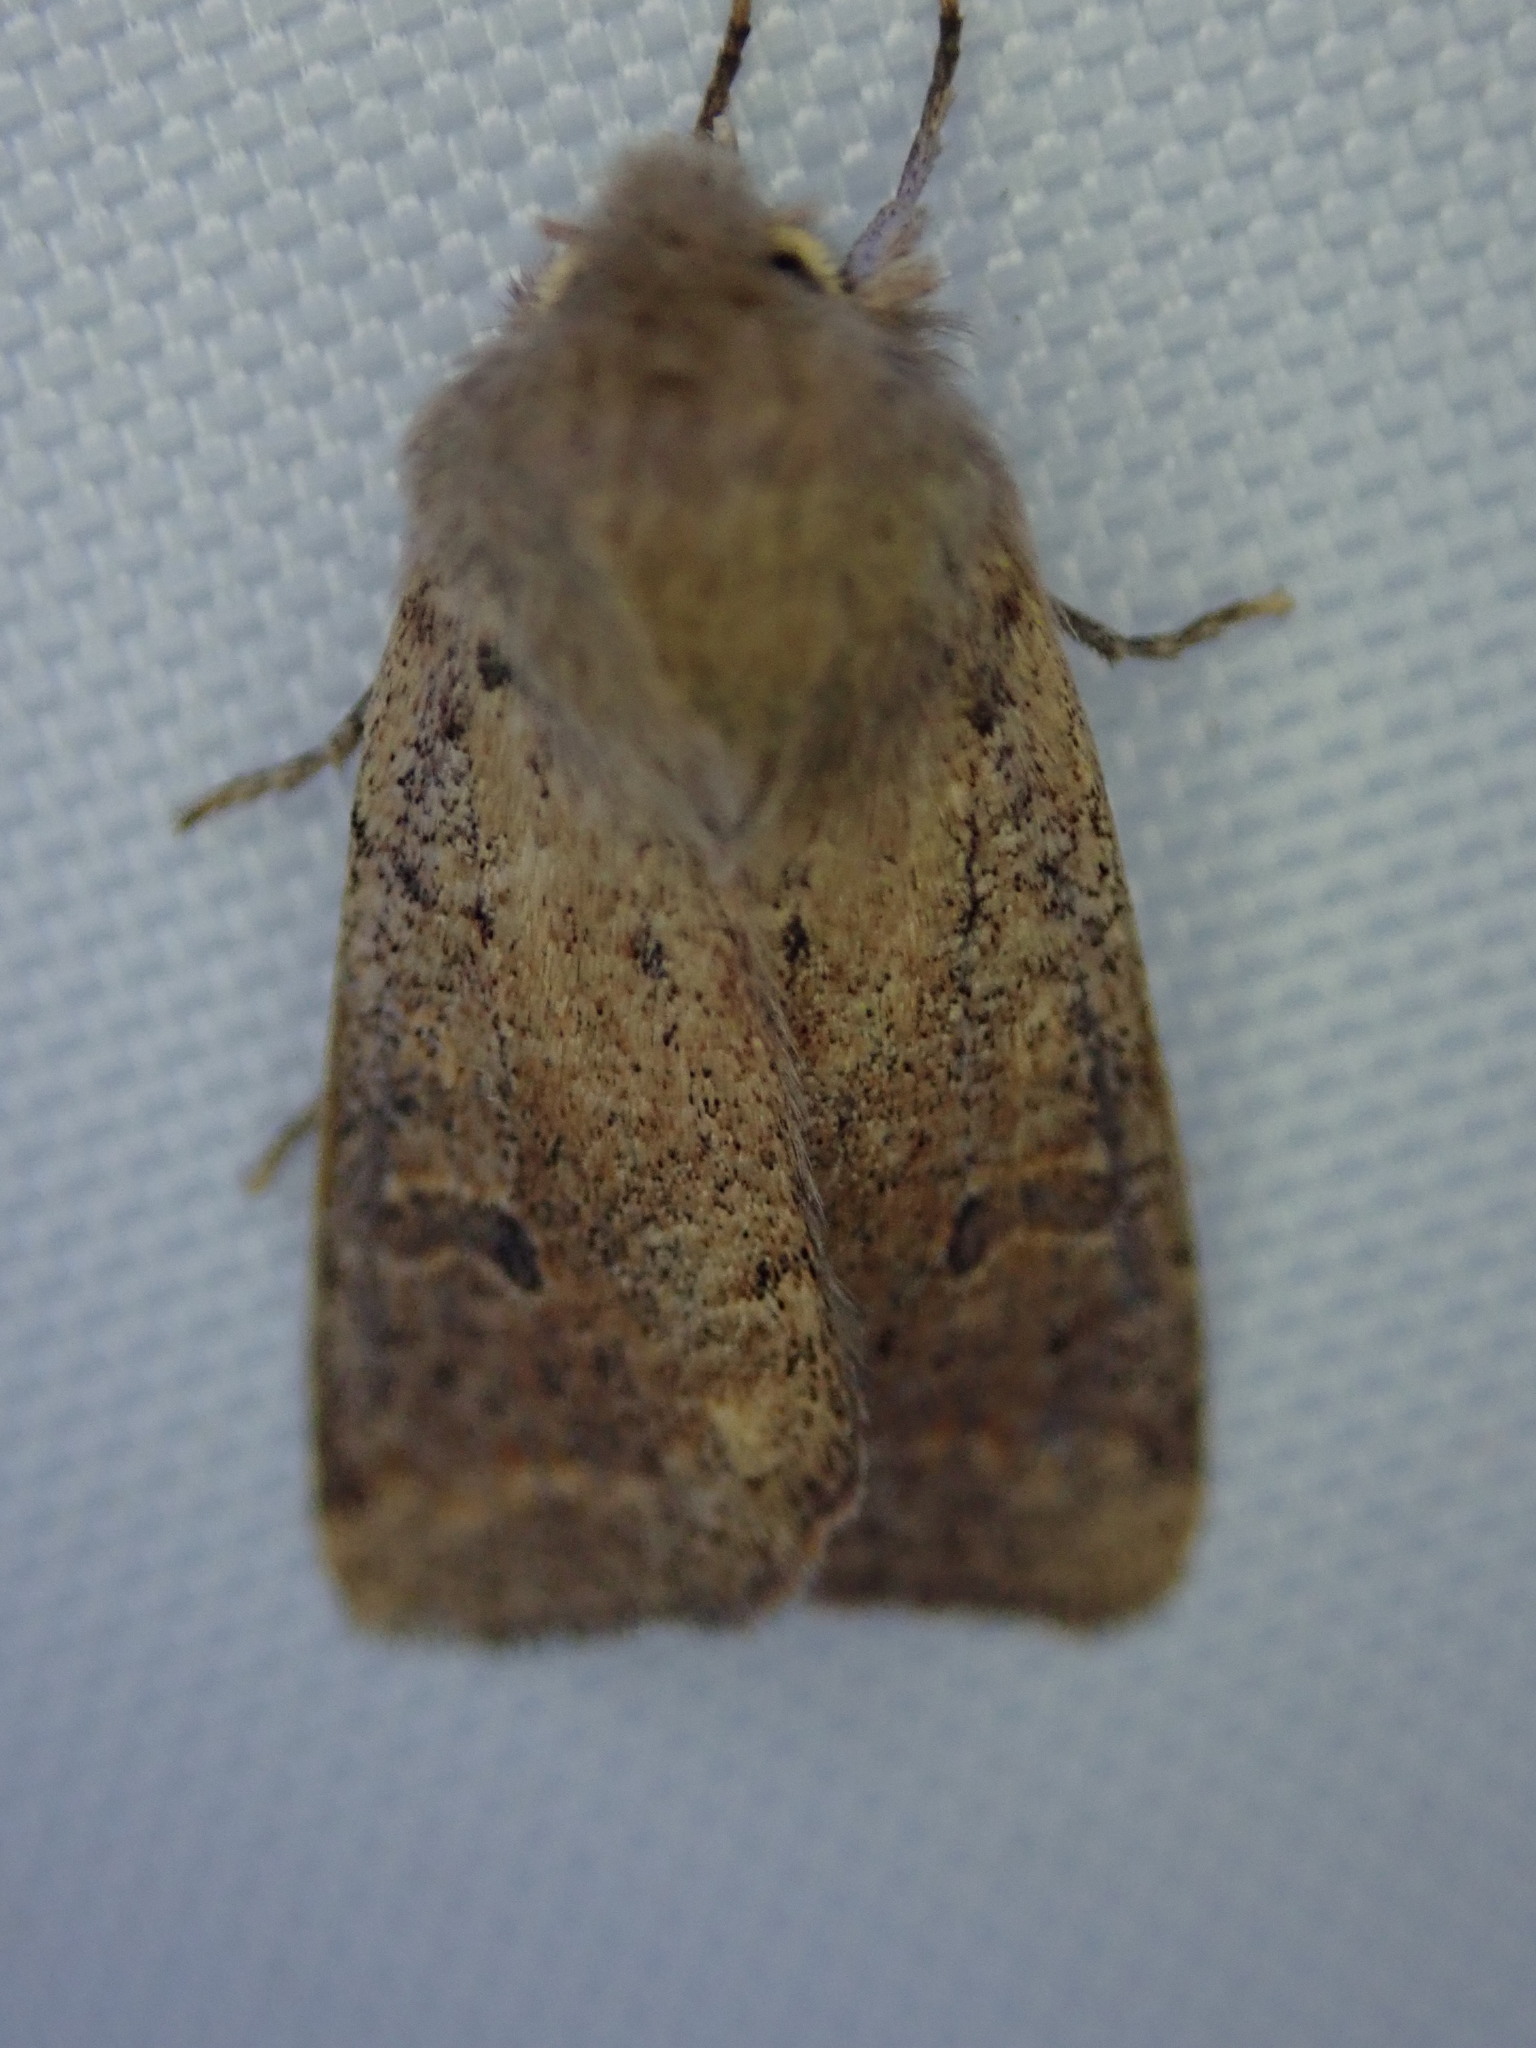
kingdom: Animalia
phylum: Arthropoda
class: Insecta
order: Lepidoptera
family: Noctuidae
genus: Orthosia
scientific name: Orthosia cruda
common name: Small quaker
